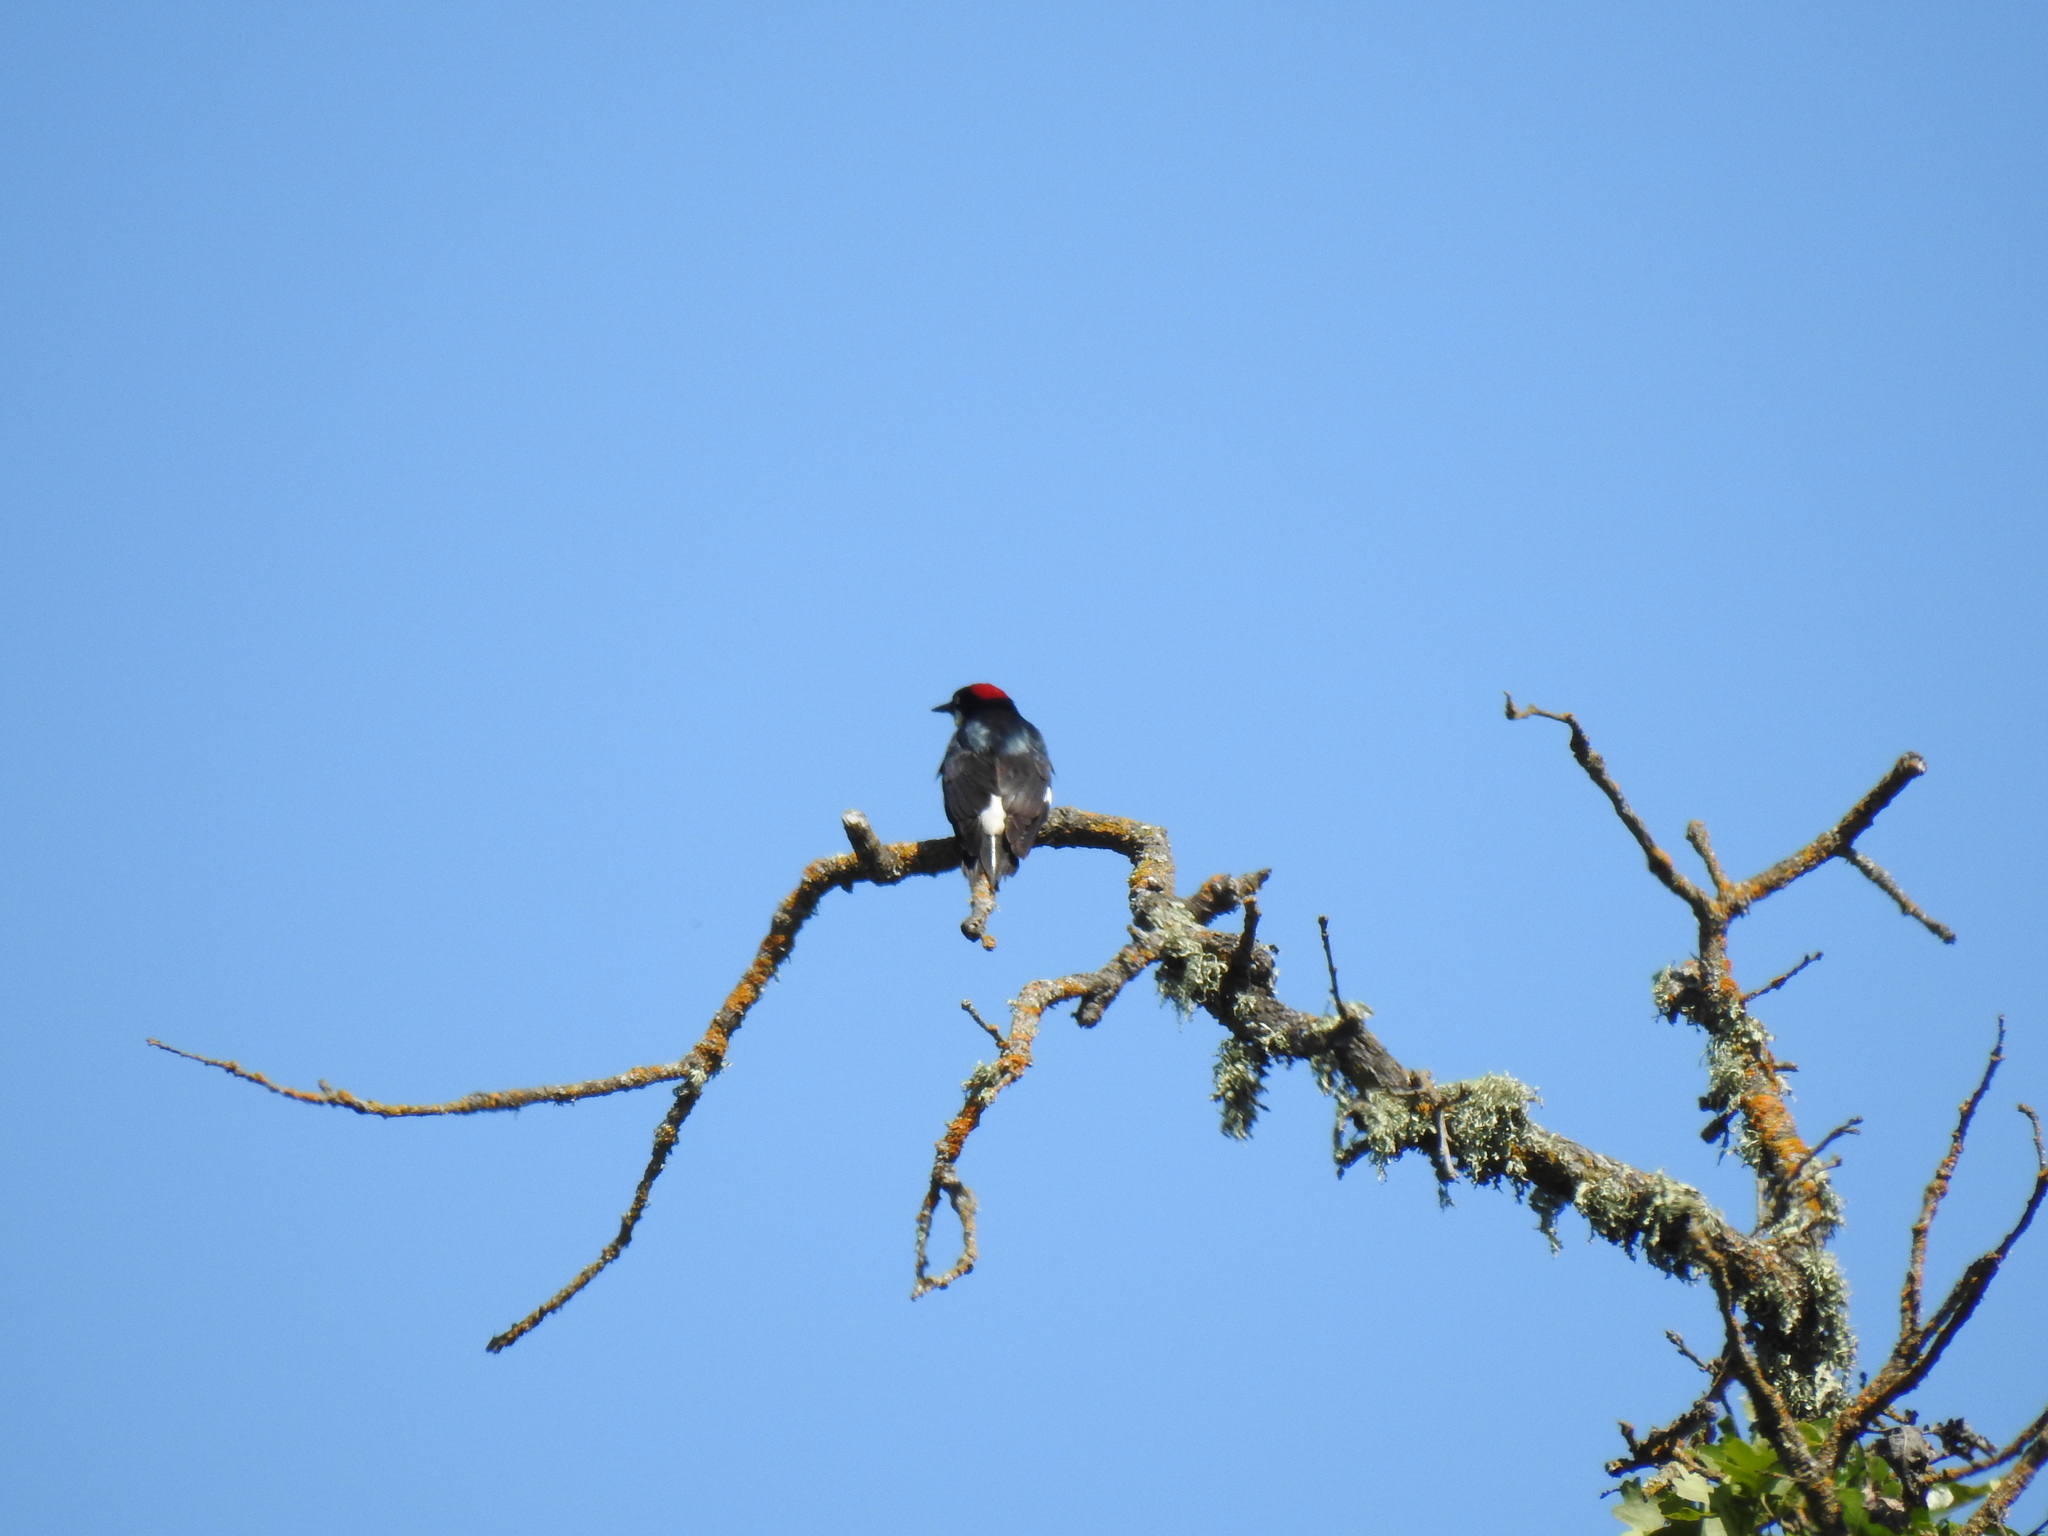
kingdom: Animalia
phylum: Chordata
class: Aves
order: Piciformes
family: Picidae
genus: Melanerpes
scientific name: Melanerpes formicivorus
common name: Acorn woodpecker
